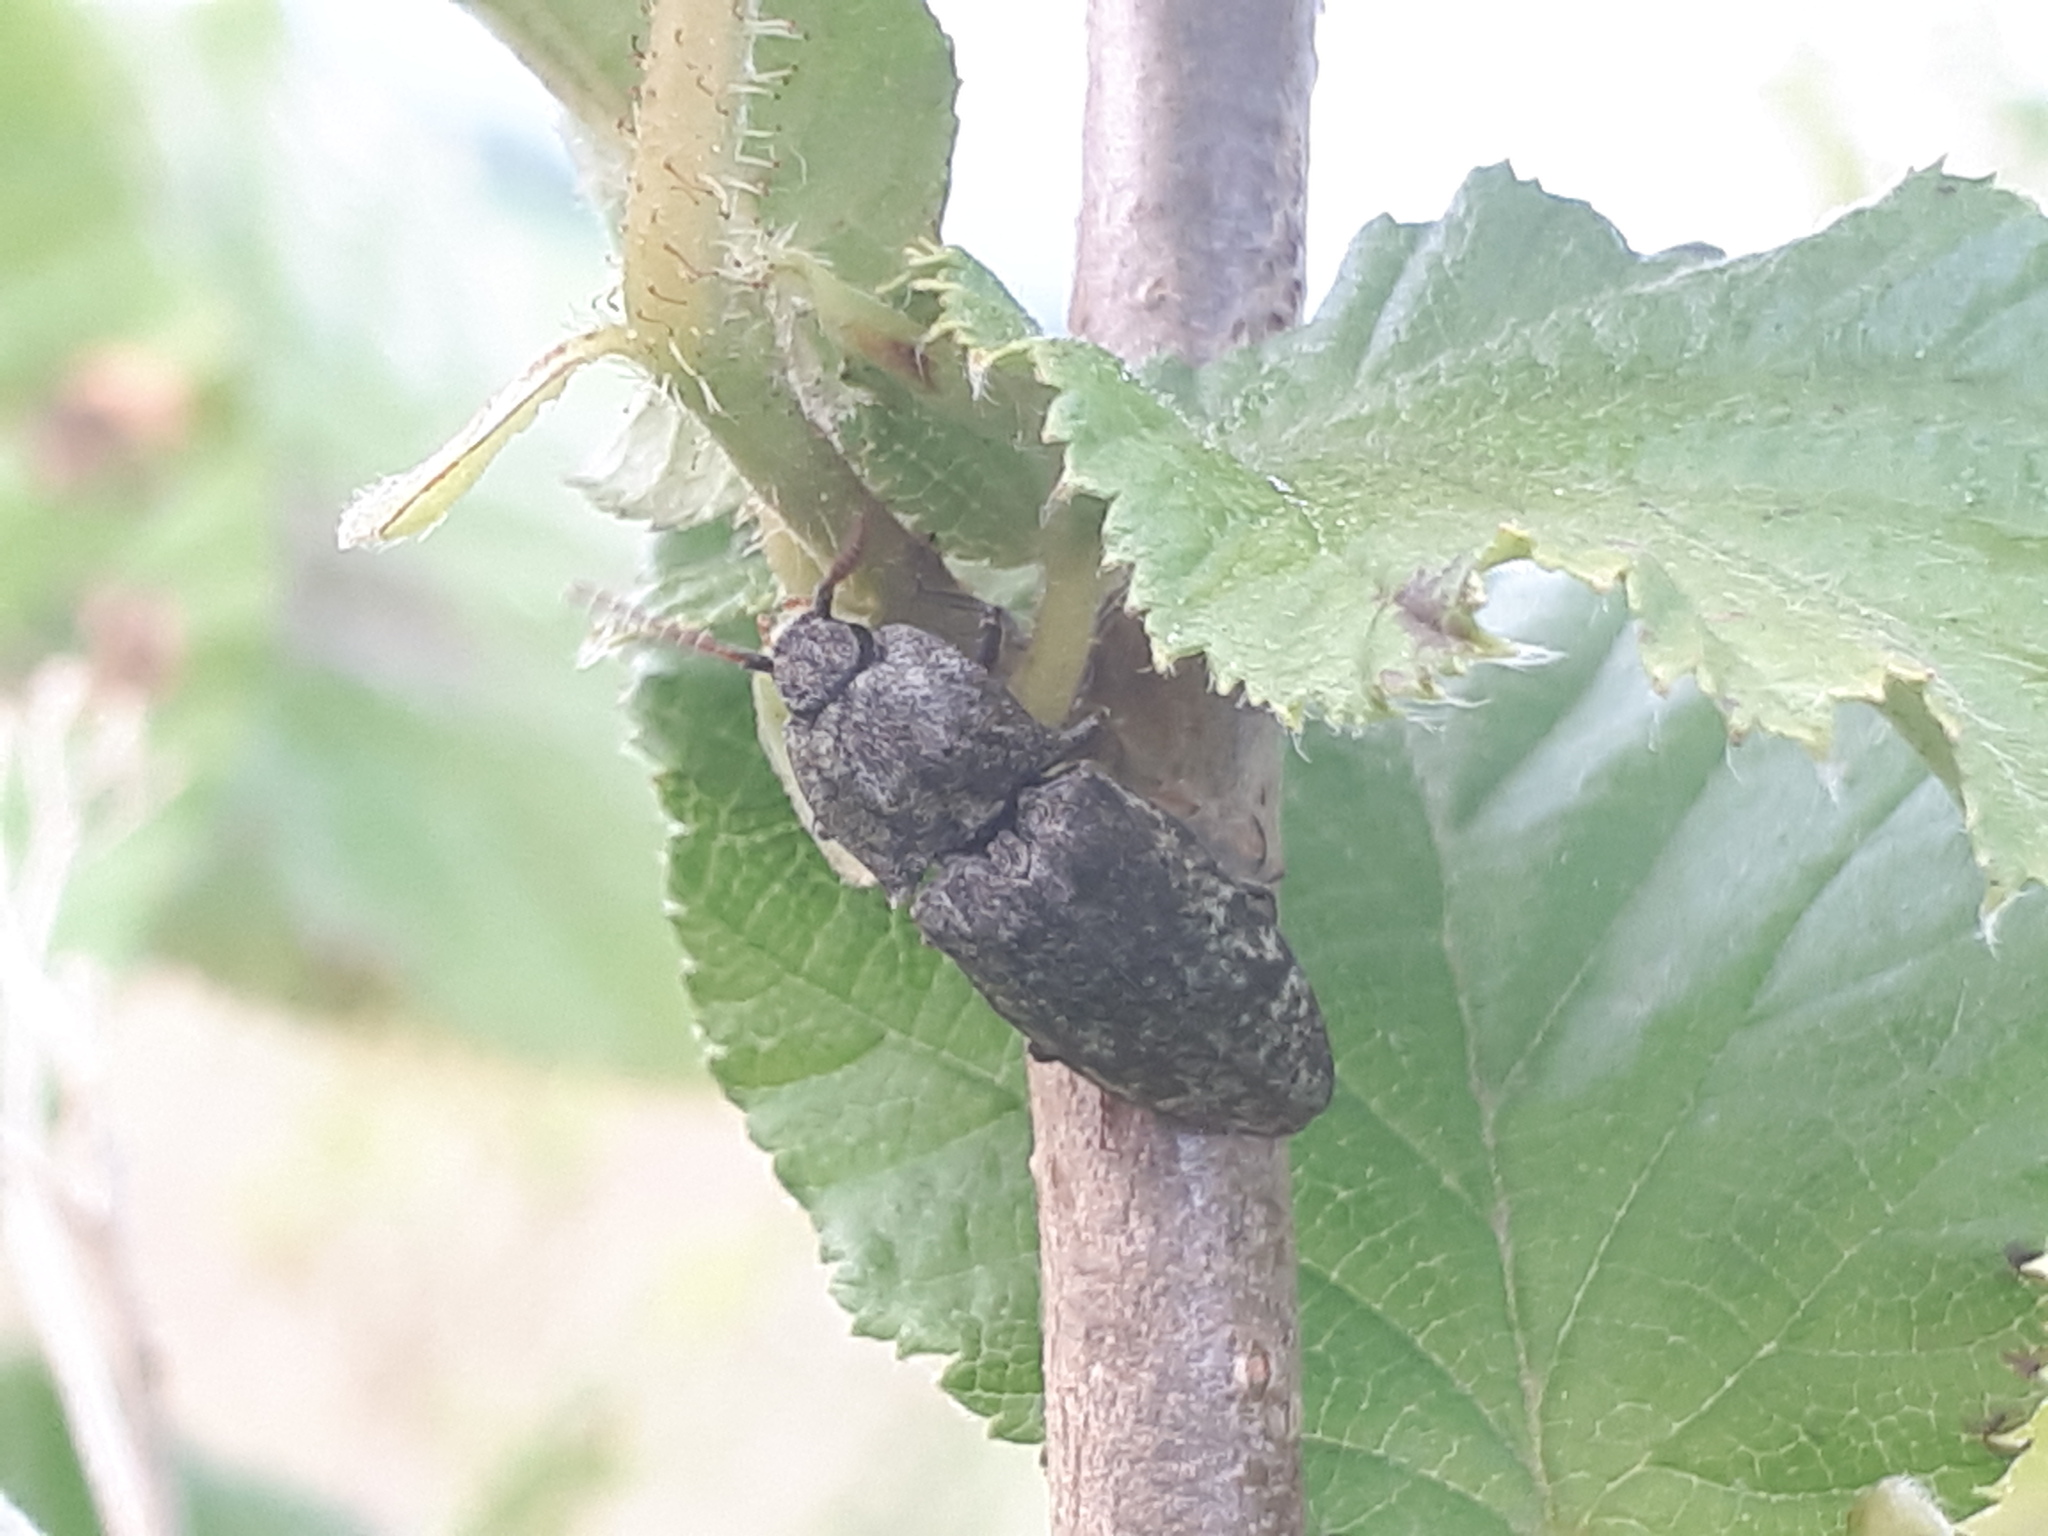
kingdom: Animalia
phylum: Arthropoda
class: Insecta
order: Coleoptera
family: Elateridae
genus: Agrypnus
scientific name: Agrypnus murinus
